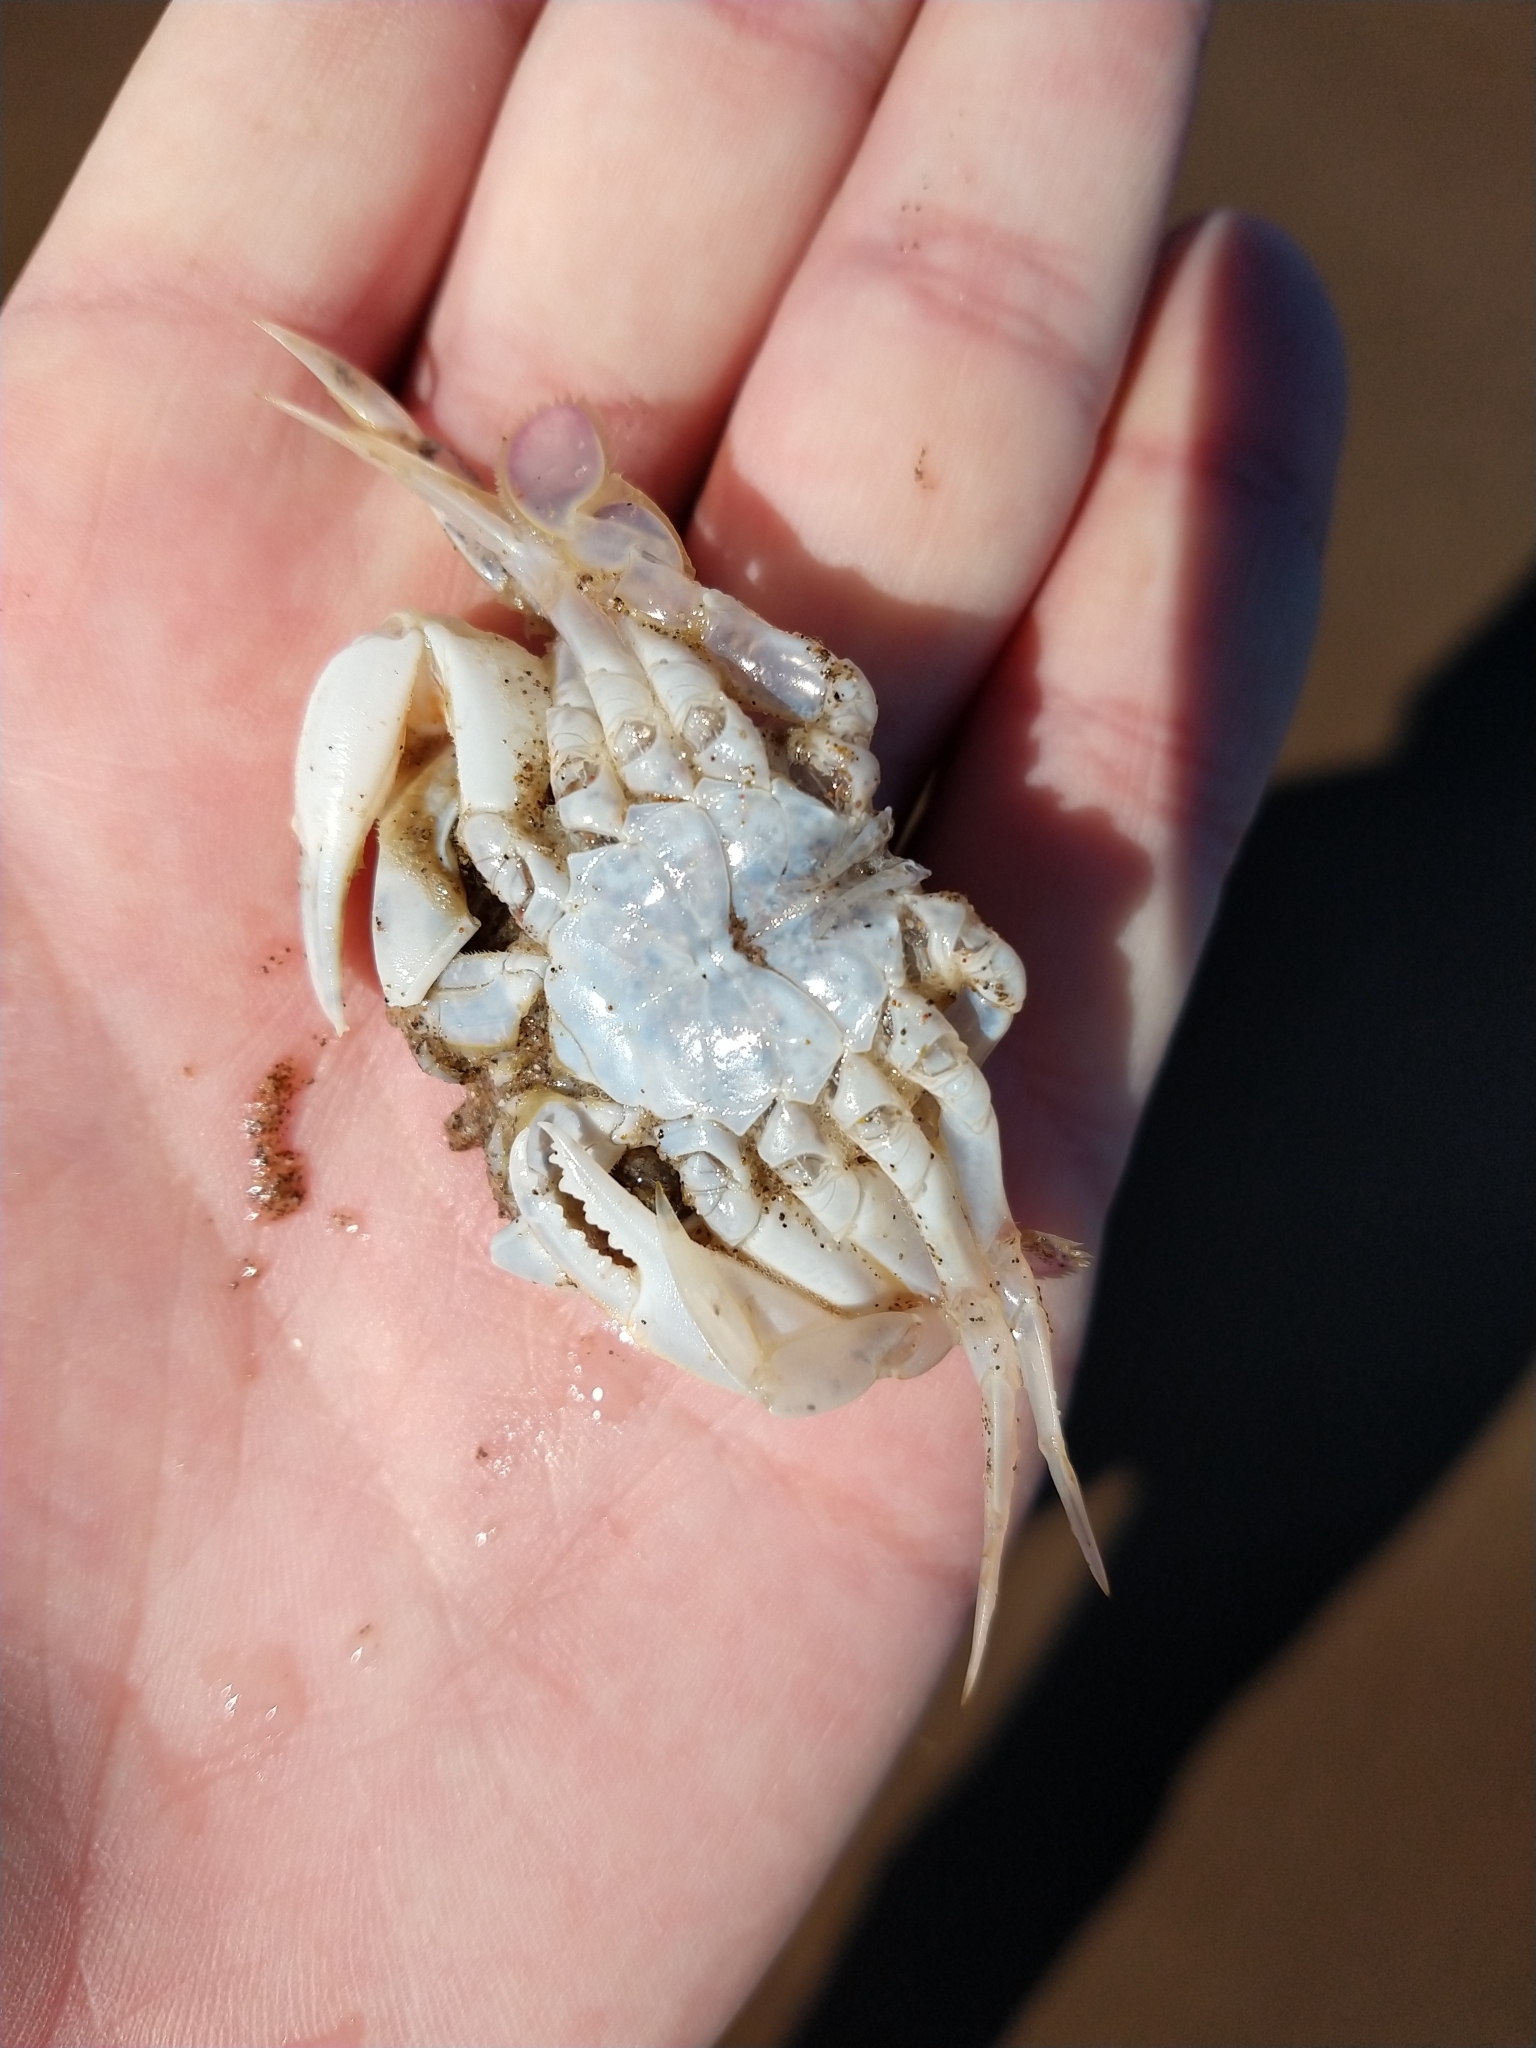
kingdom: Animalia
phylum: Arthropoda
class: Malacostraca
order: Decapoda
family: Ovalipidae
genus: Ovalipes
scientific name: Ovalipes trimaculatus
